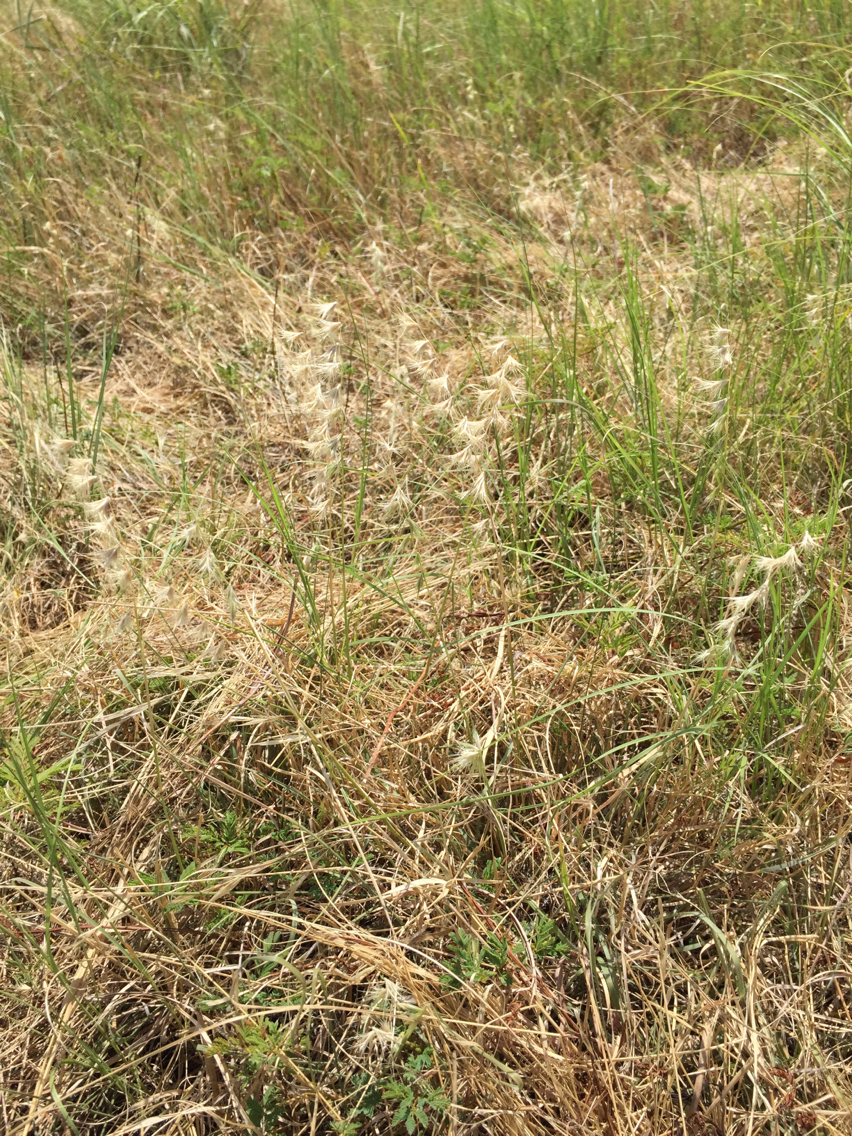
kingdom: Plantae
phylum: Tracheophyta
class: Liliopsida
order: Poales
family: Poaceae
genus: Bouteloua
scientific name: Bouteloua rigidiseta
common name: Texas grama
